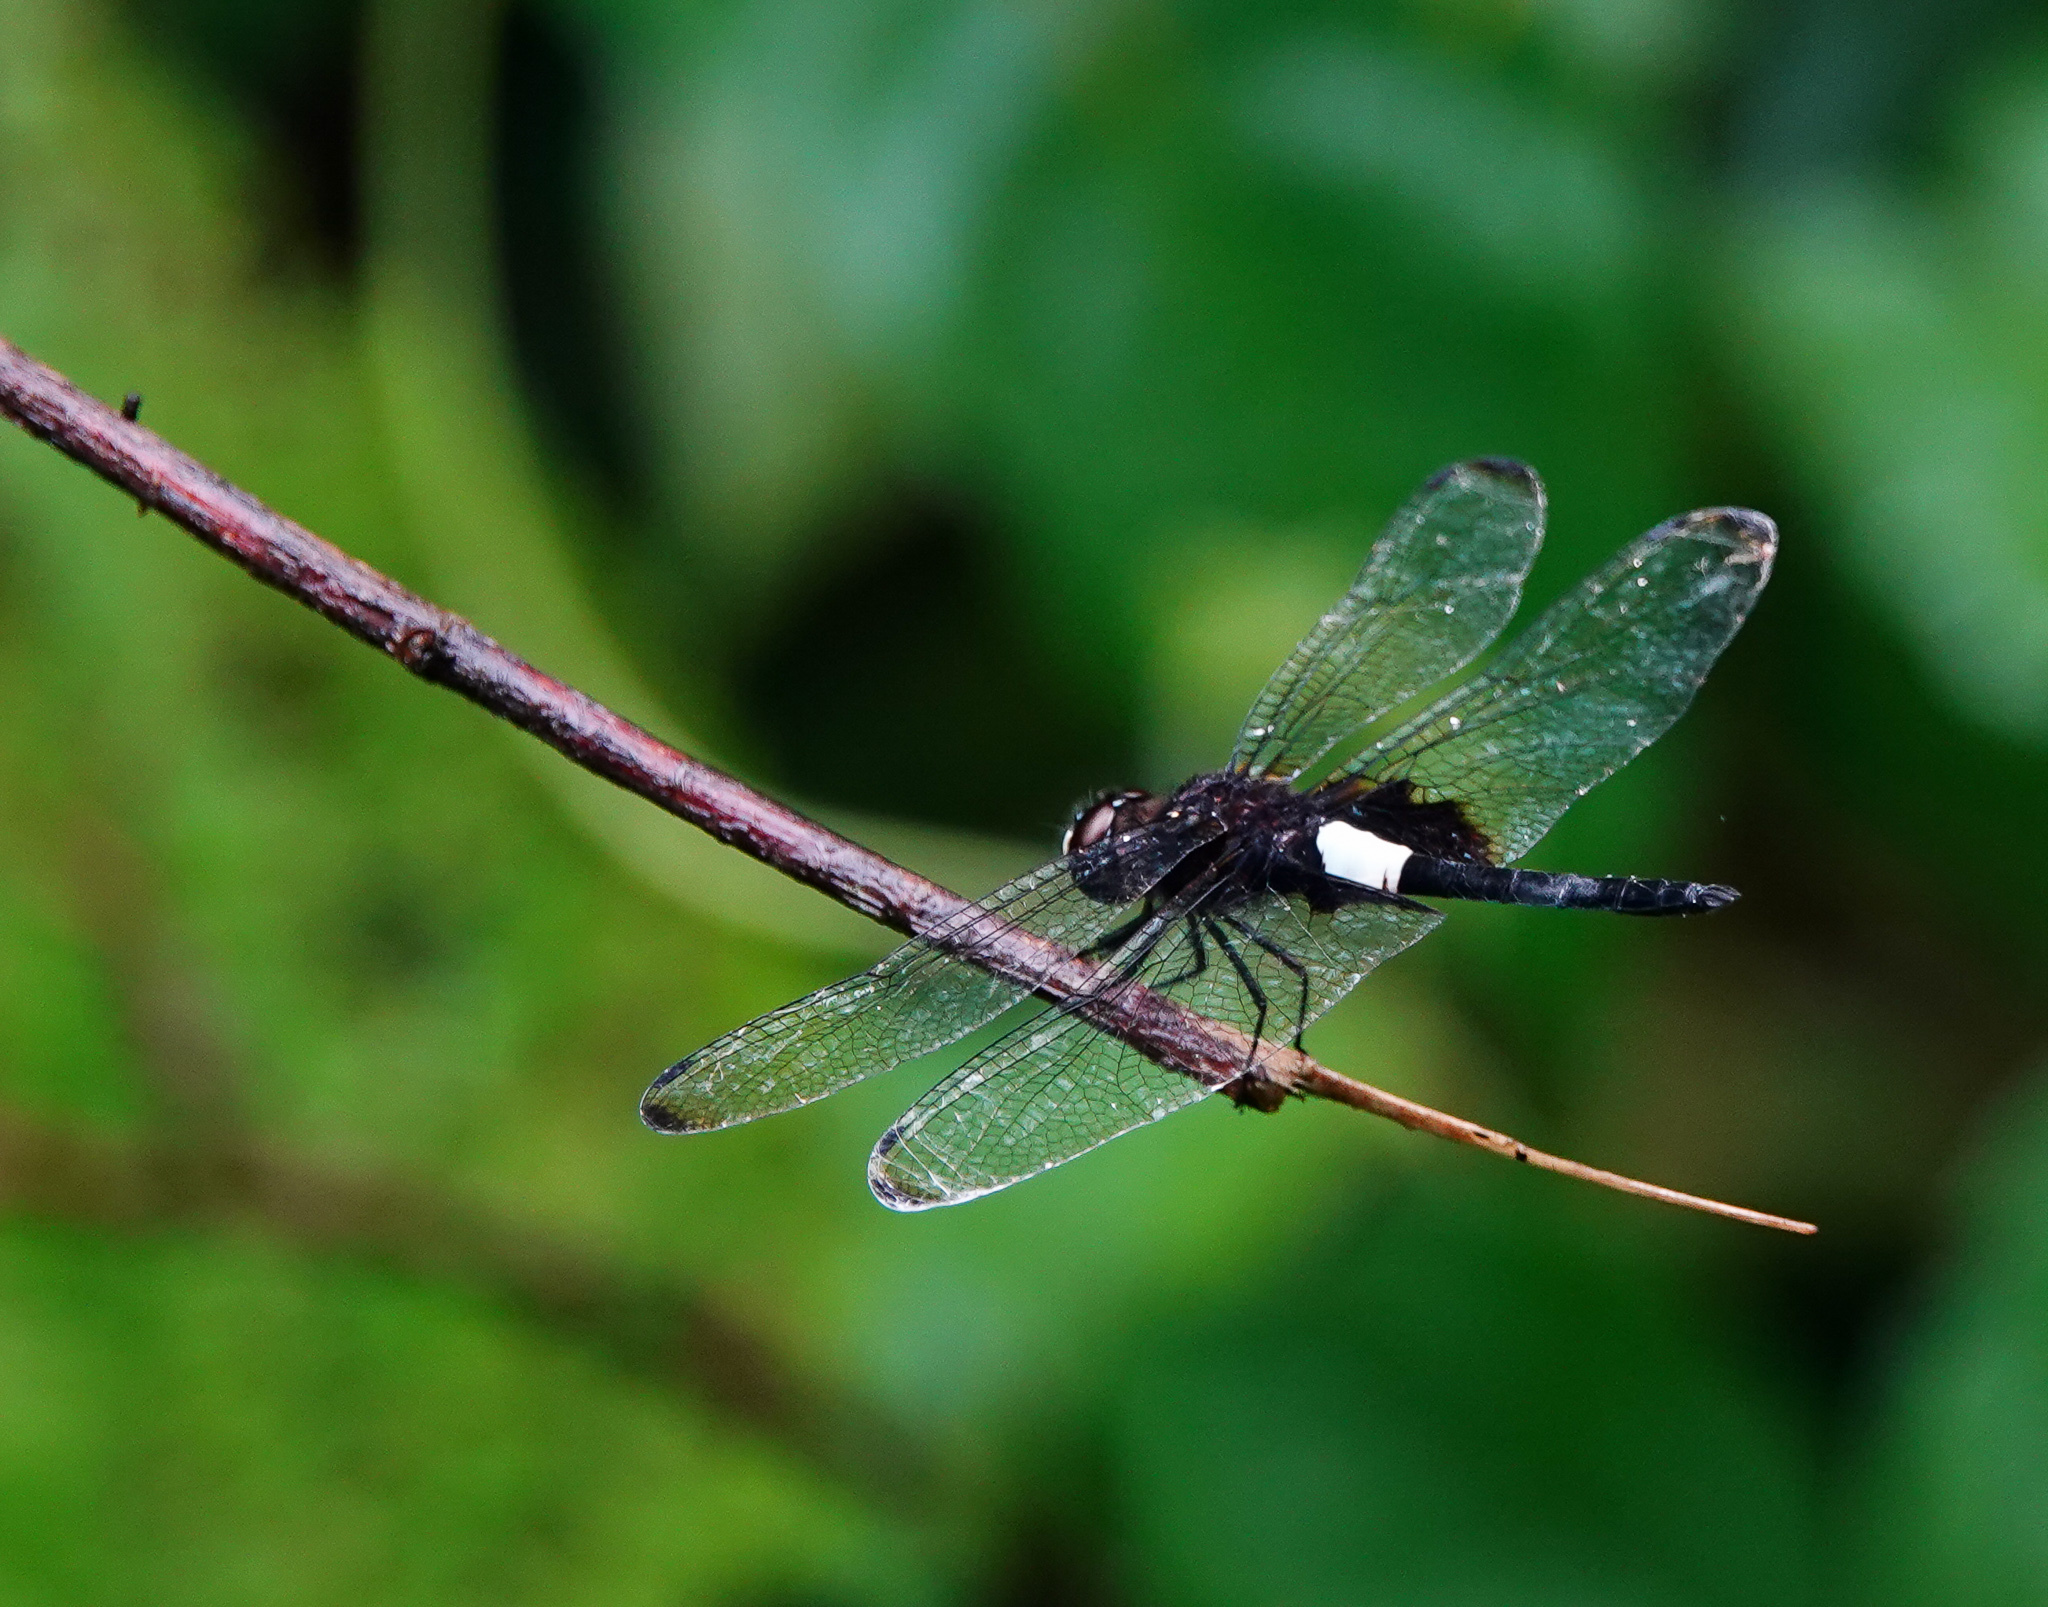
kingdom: Animalia
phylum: Arthropoda
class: Insecta
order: Odonata
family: Libellulidae
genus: Pseudothemis
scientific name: Pseudothemis zonata
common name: Pied skimmer
